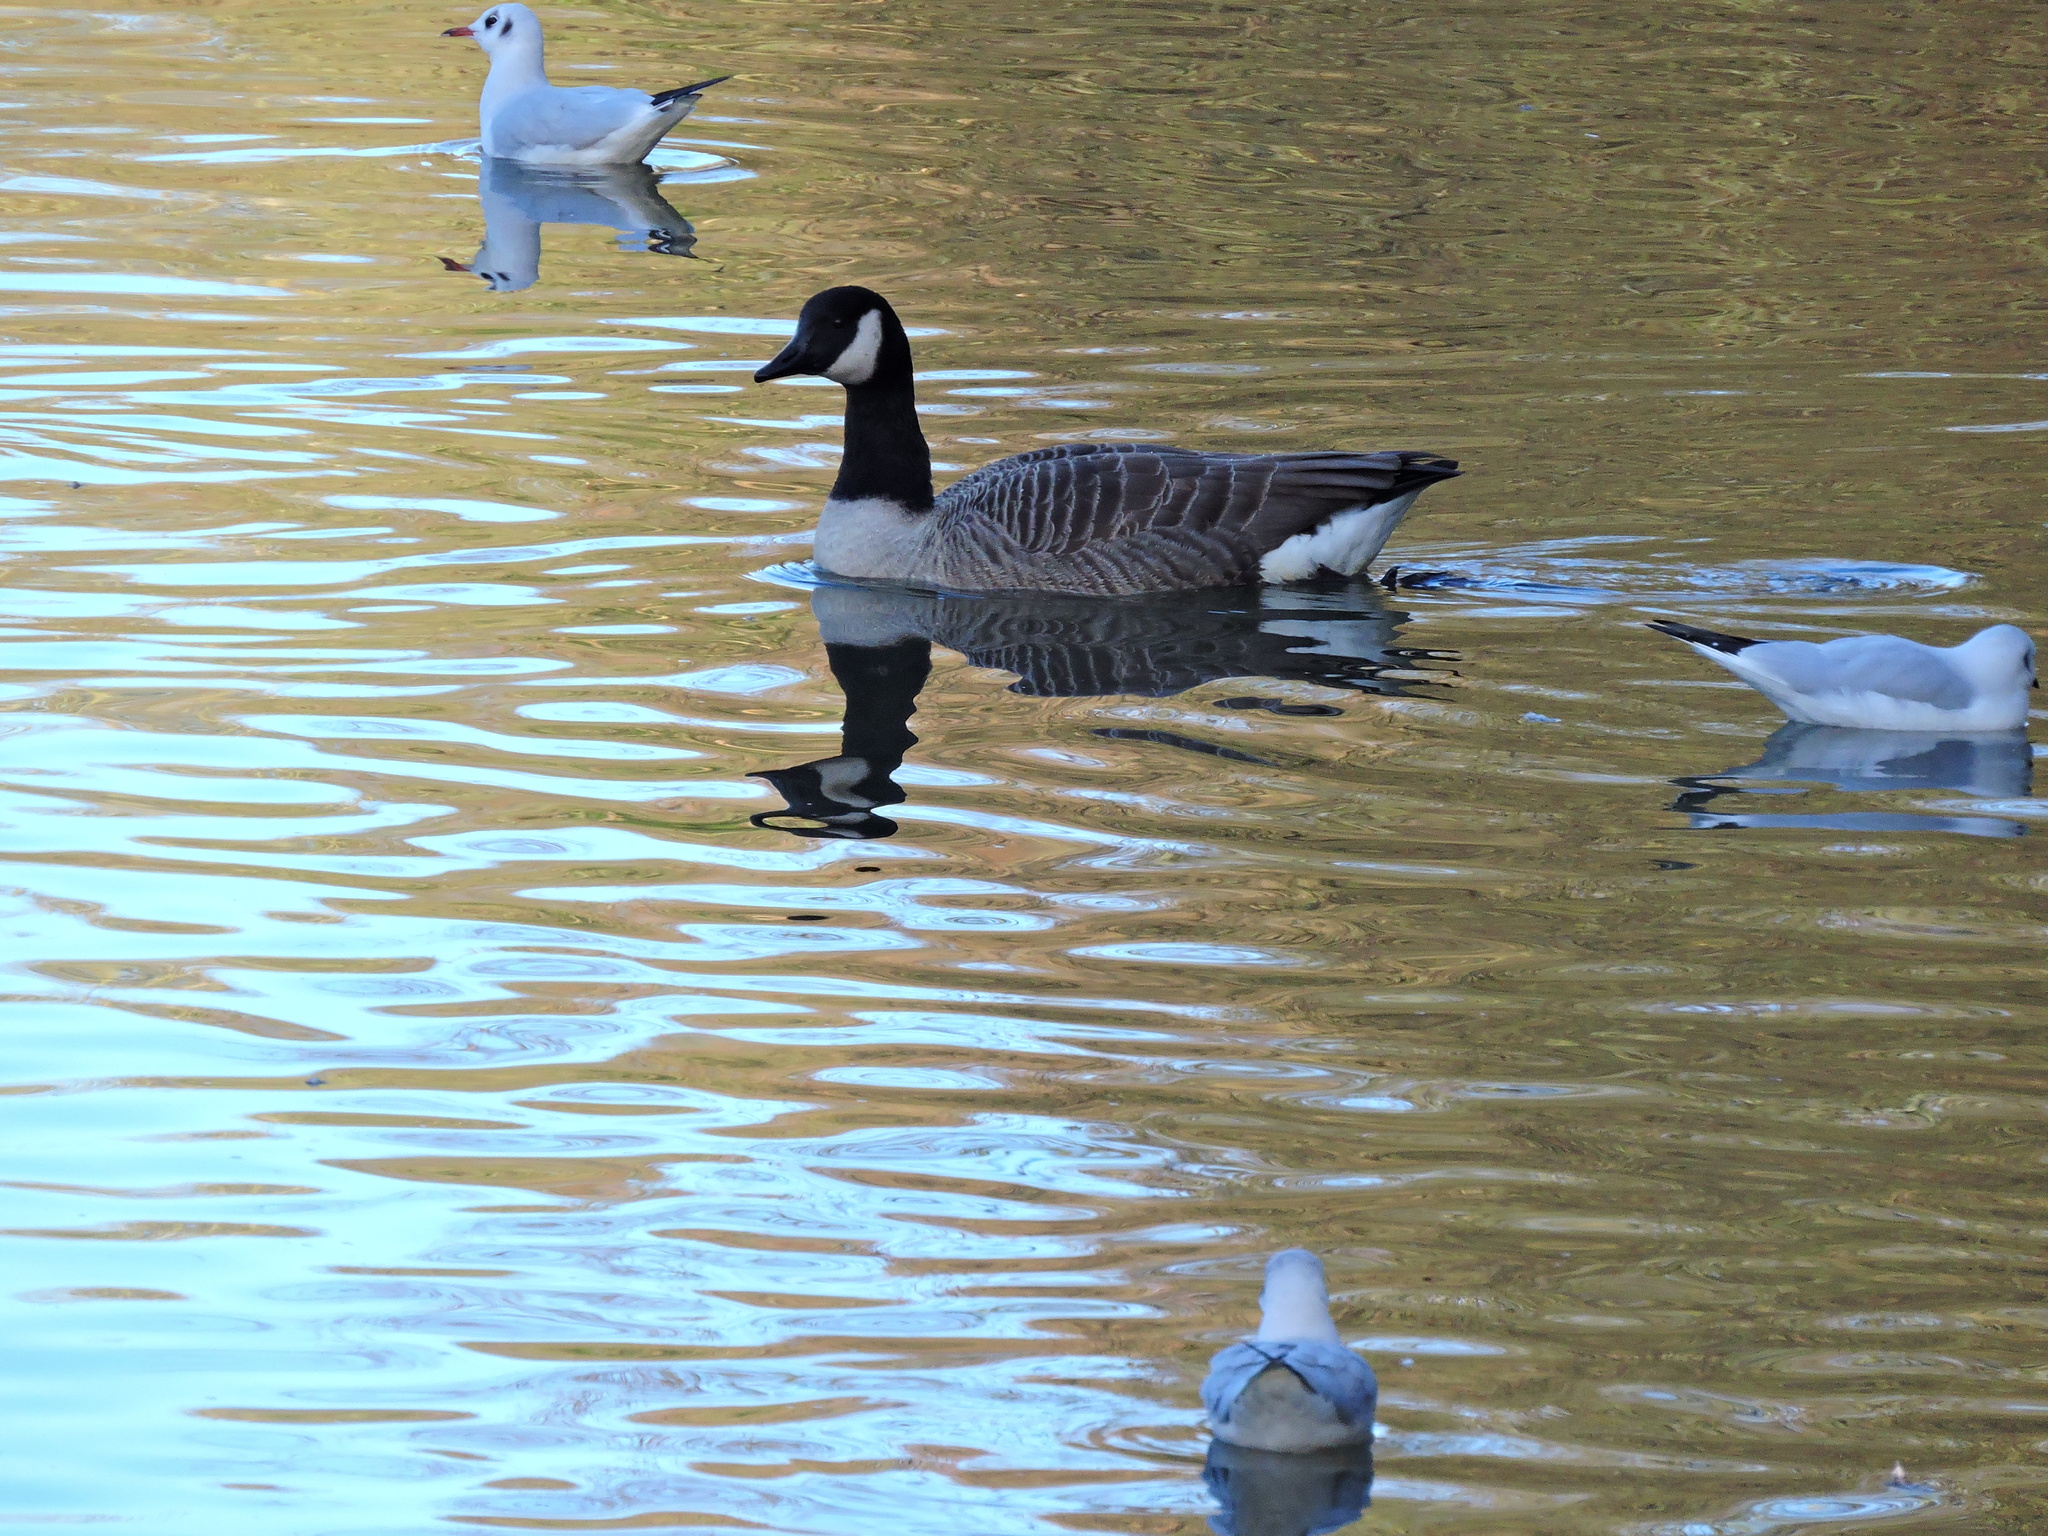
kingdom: Animalia
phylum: Chordata
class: Aves
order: Anseriformes
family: Anatidae
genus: Branta
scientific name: Branta canadensis
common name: Canada goose
